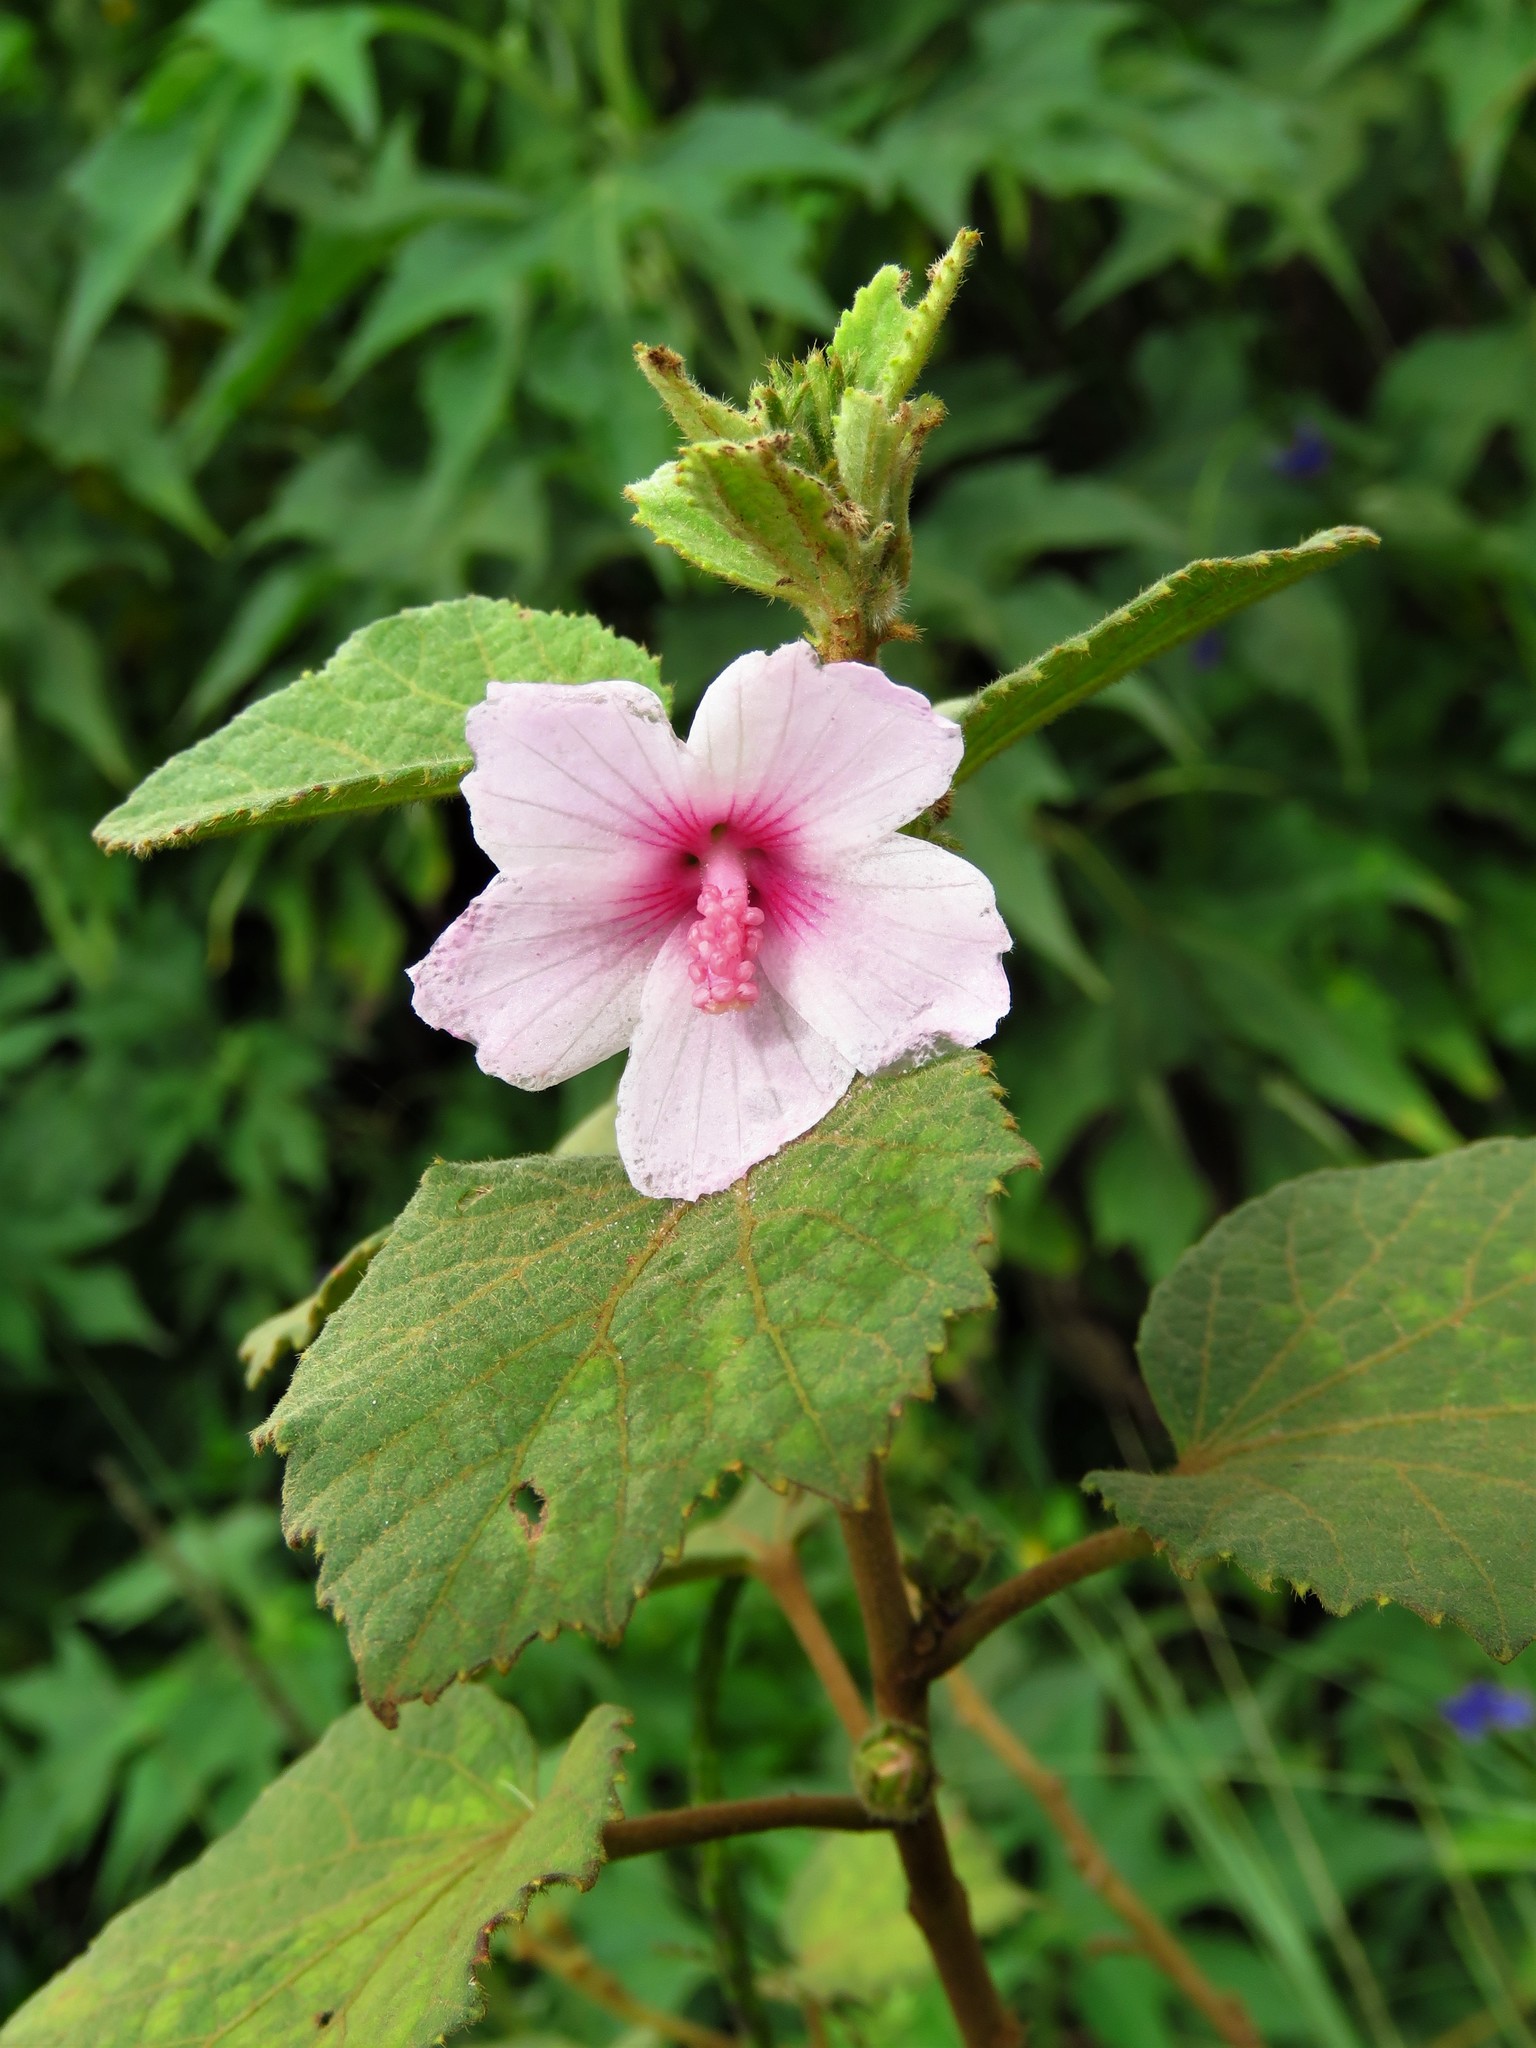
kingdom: Plantae
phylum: Tracheophyta
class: Magnoliopsida
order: Malvales
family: Malvaceae
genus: Urena
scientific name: Urena lobata
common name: Caesarweed
